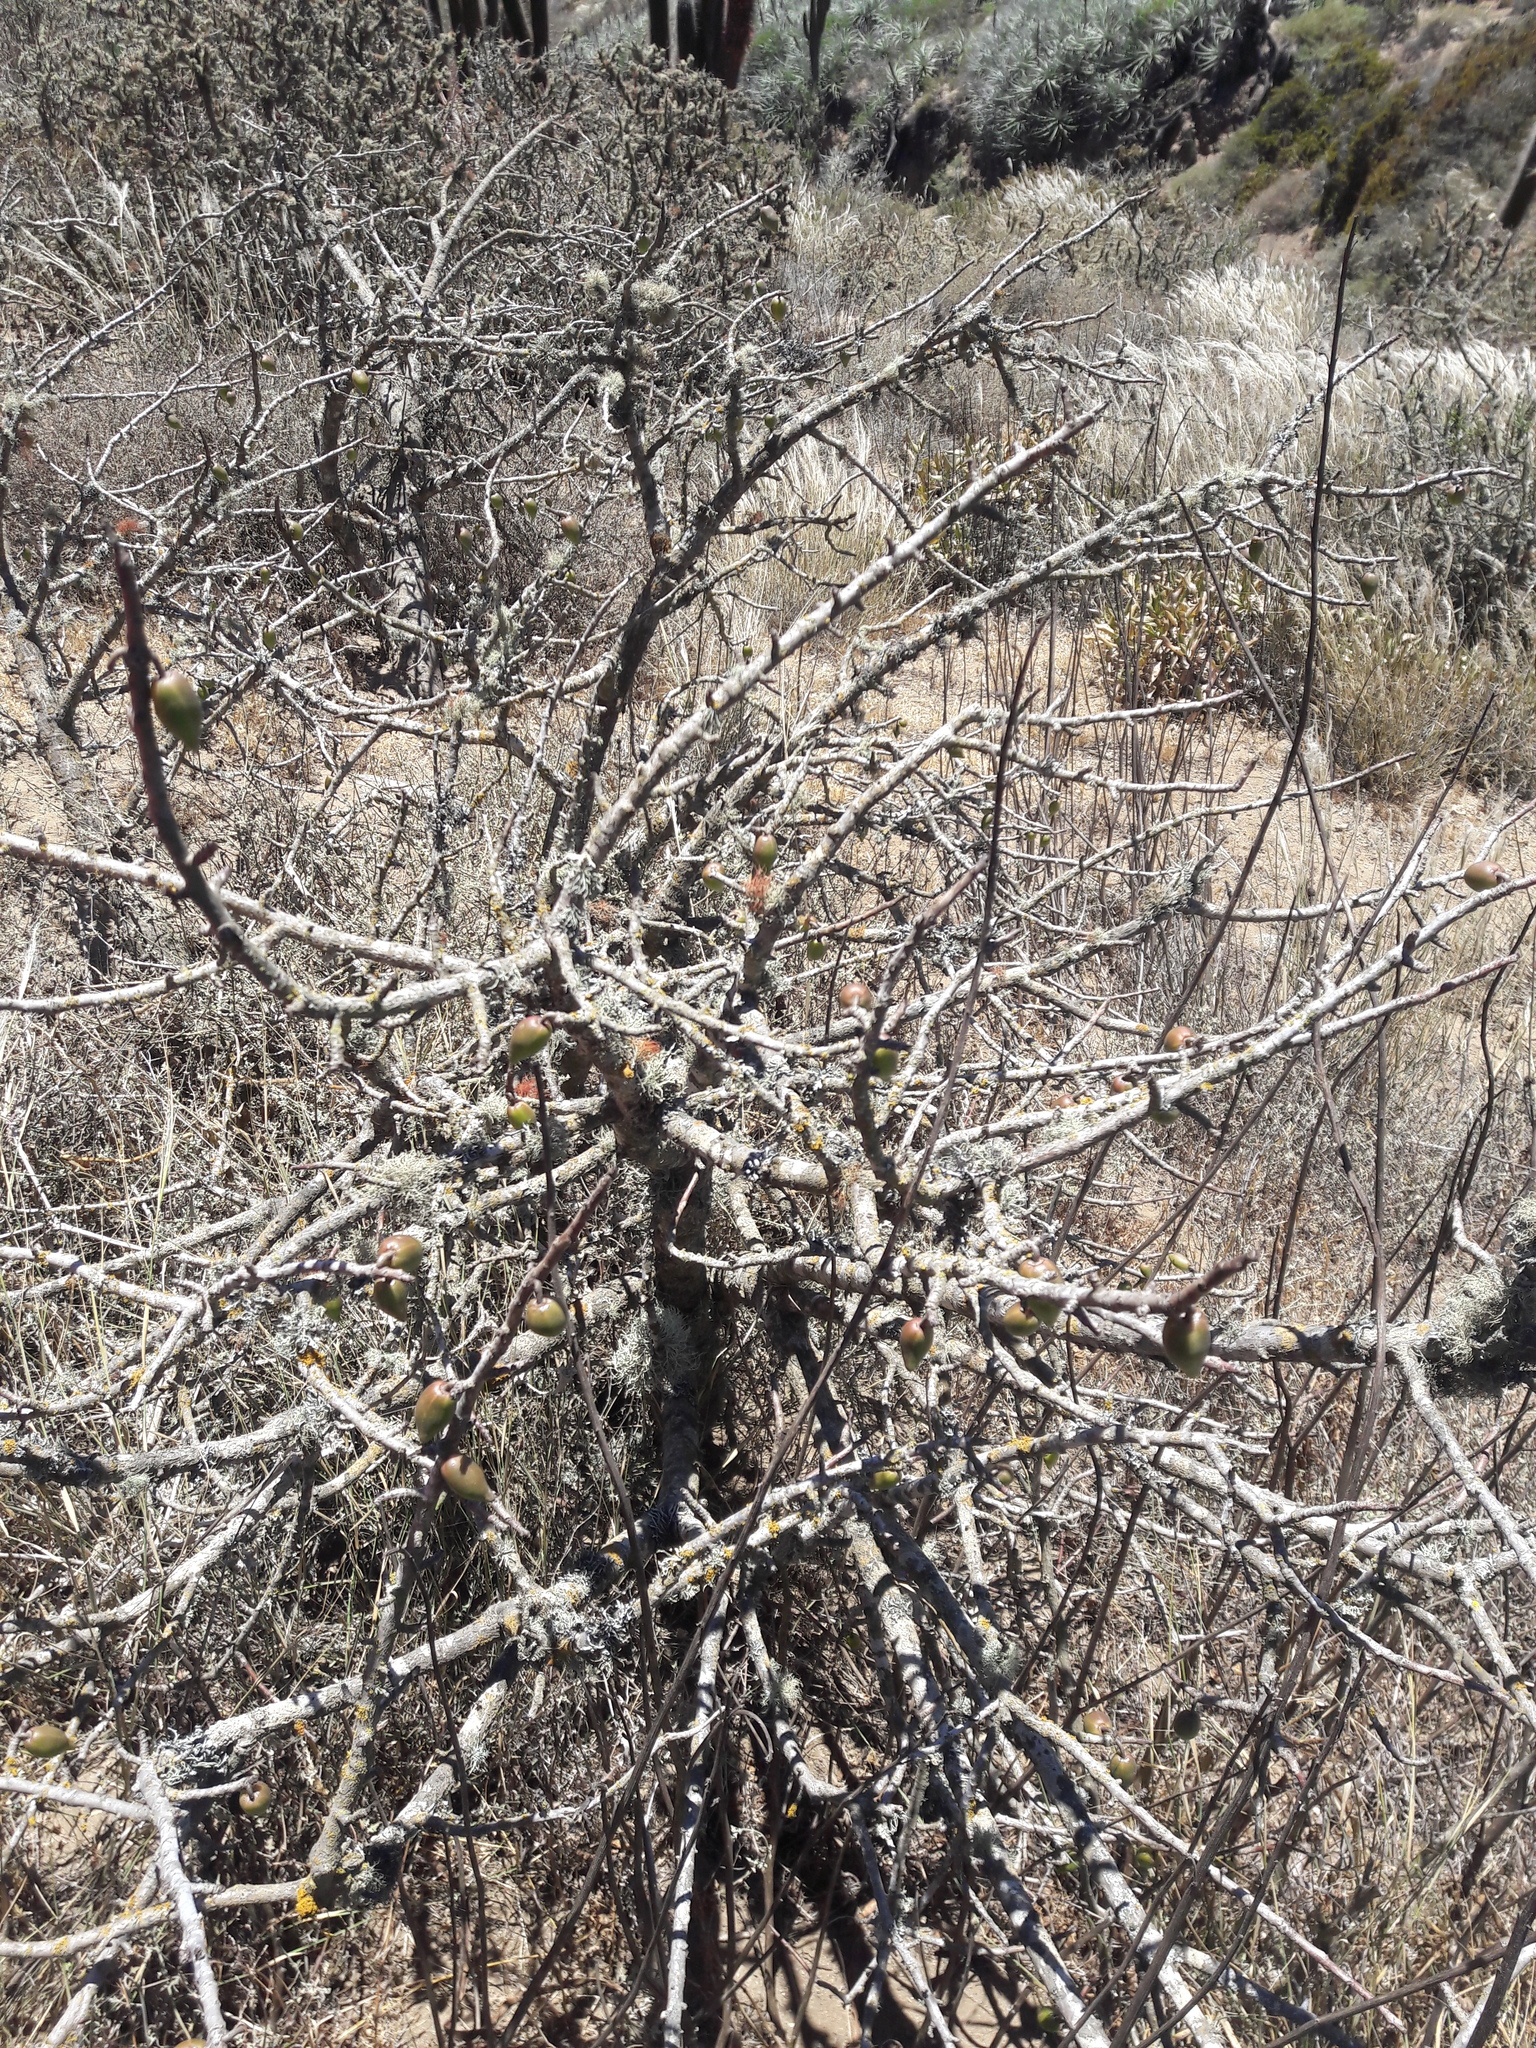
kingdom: Plantae
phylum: Tracheophyta
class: Magnoliopsida
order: Brassicales
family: Caricaceae
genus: Vasconcellea
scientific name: Vasconcellea chilensis
